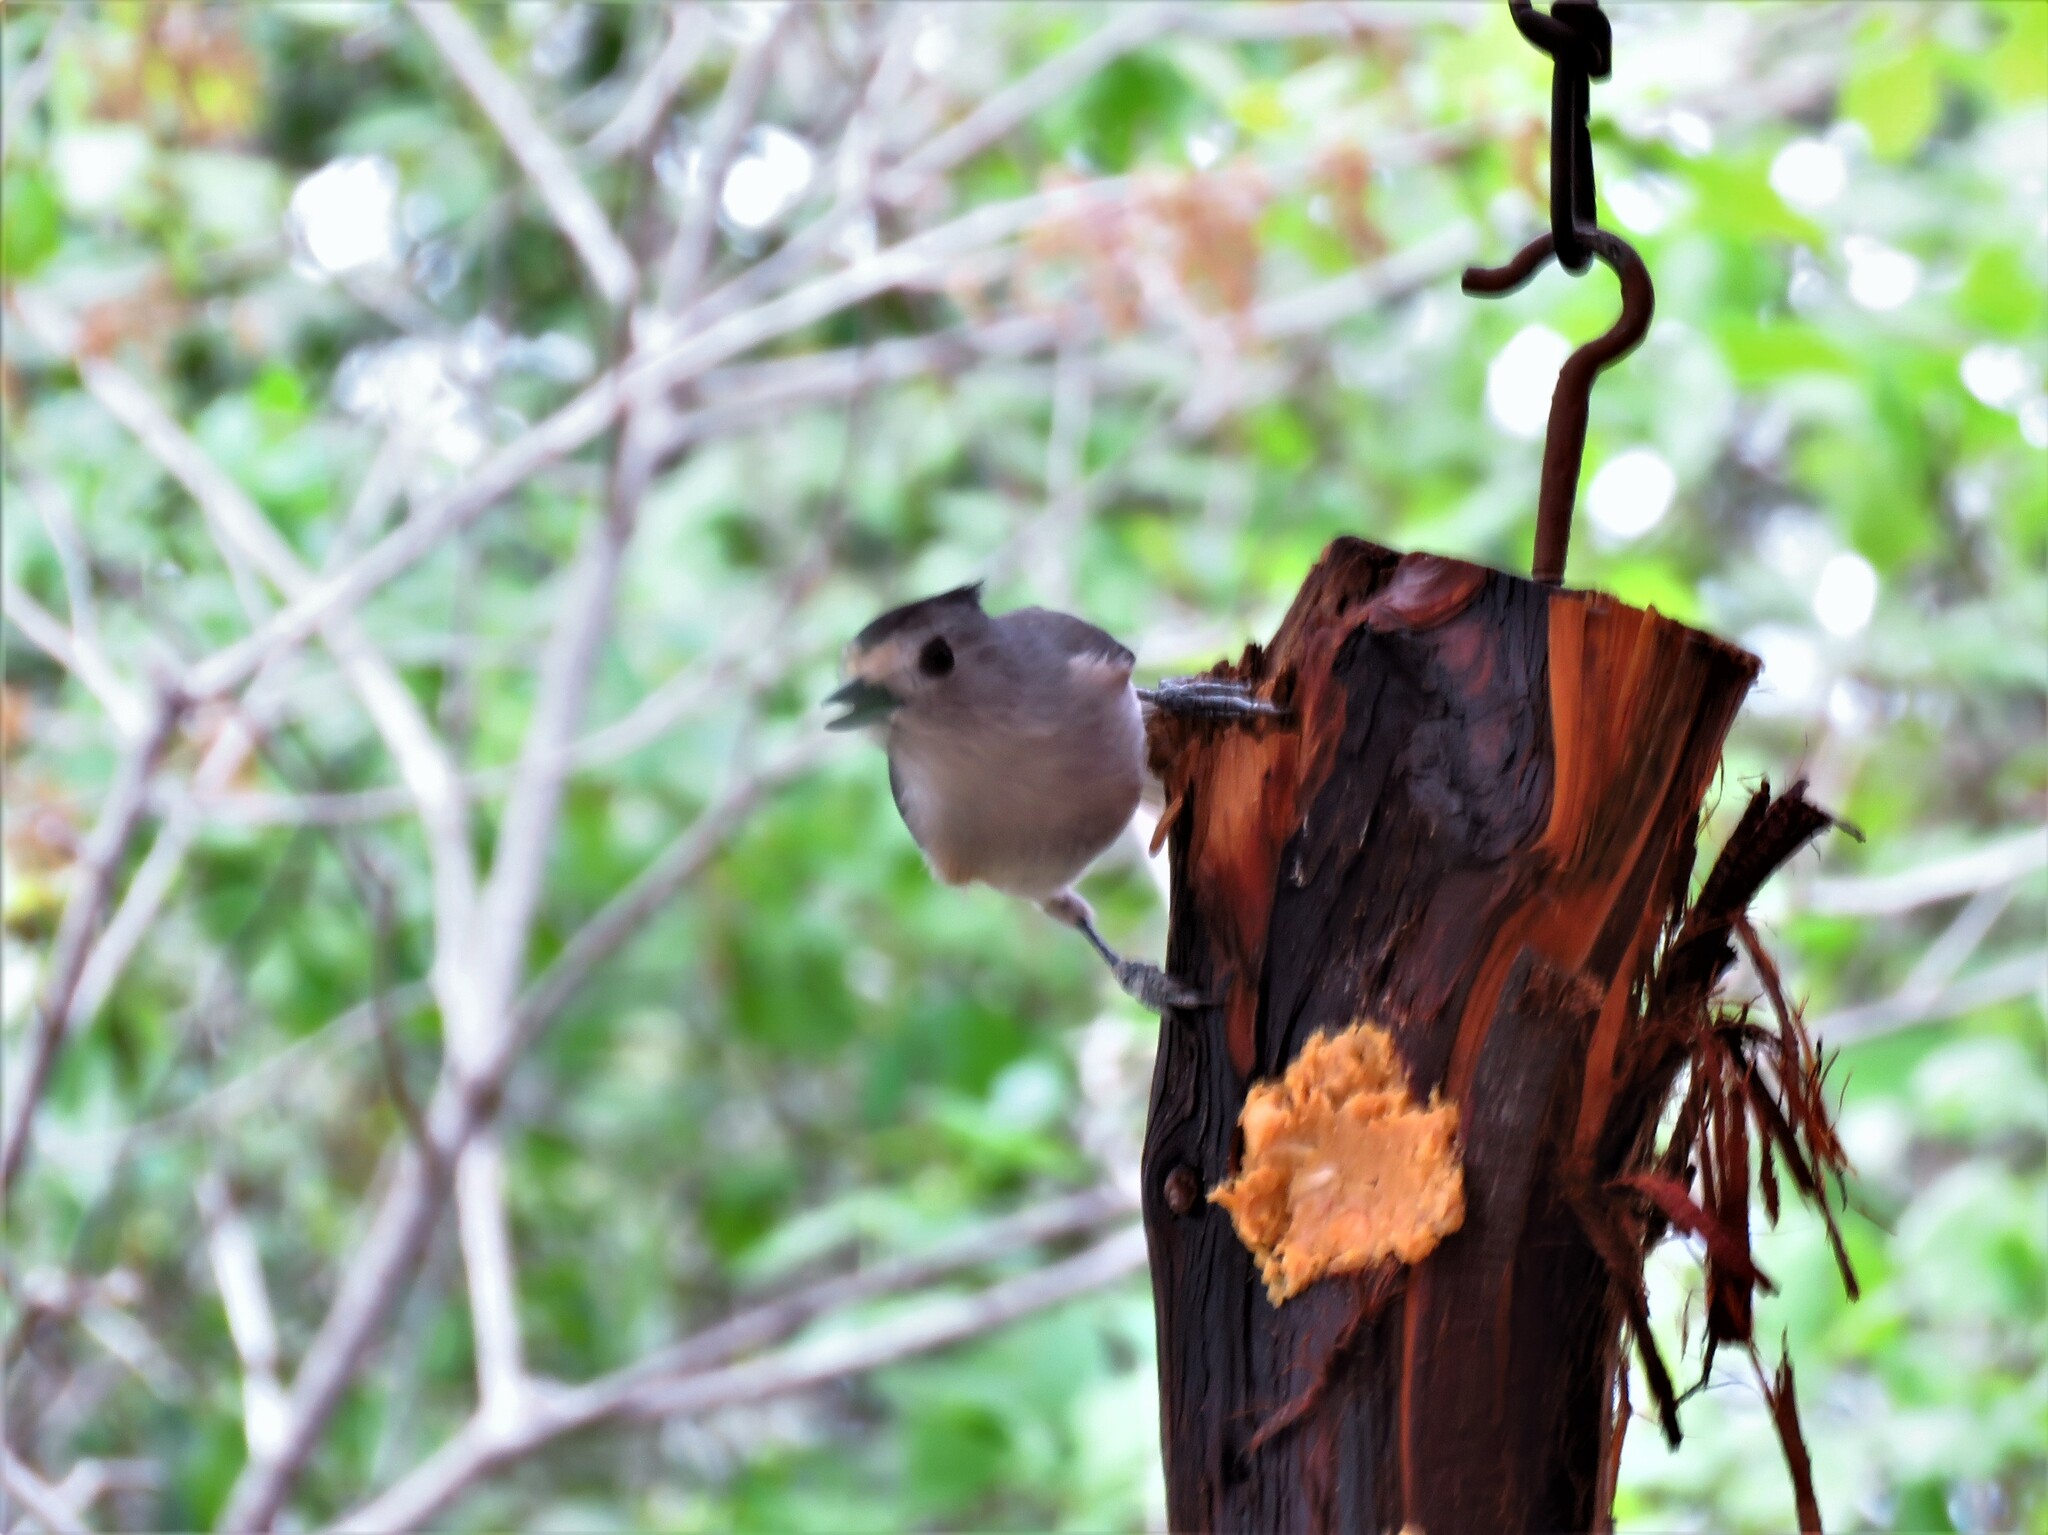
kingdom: Animalia
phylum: Chordata
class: Aves
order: Passeriformes
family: Paridae
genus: Baeolophus
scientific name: Baeolophus atricristatus
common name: Black-crested titmouse
